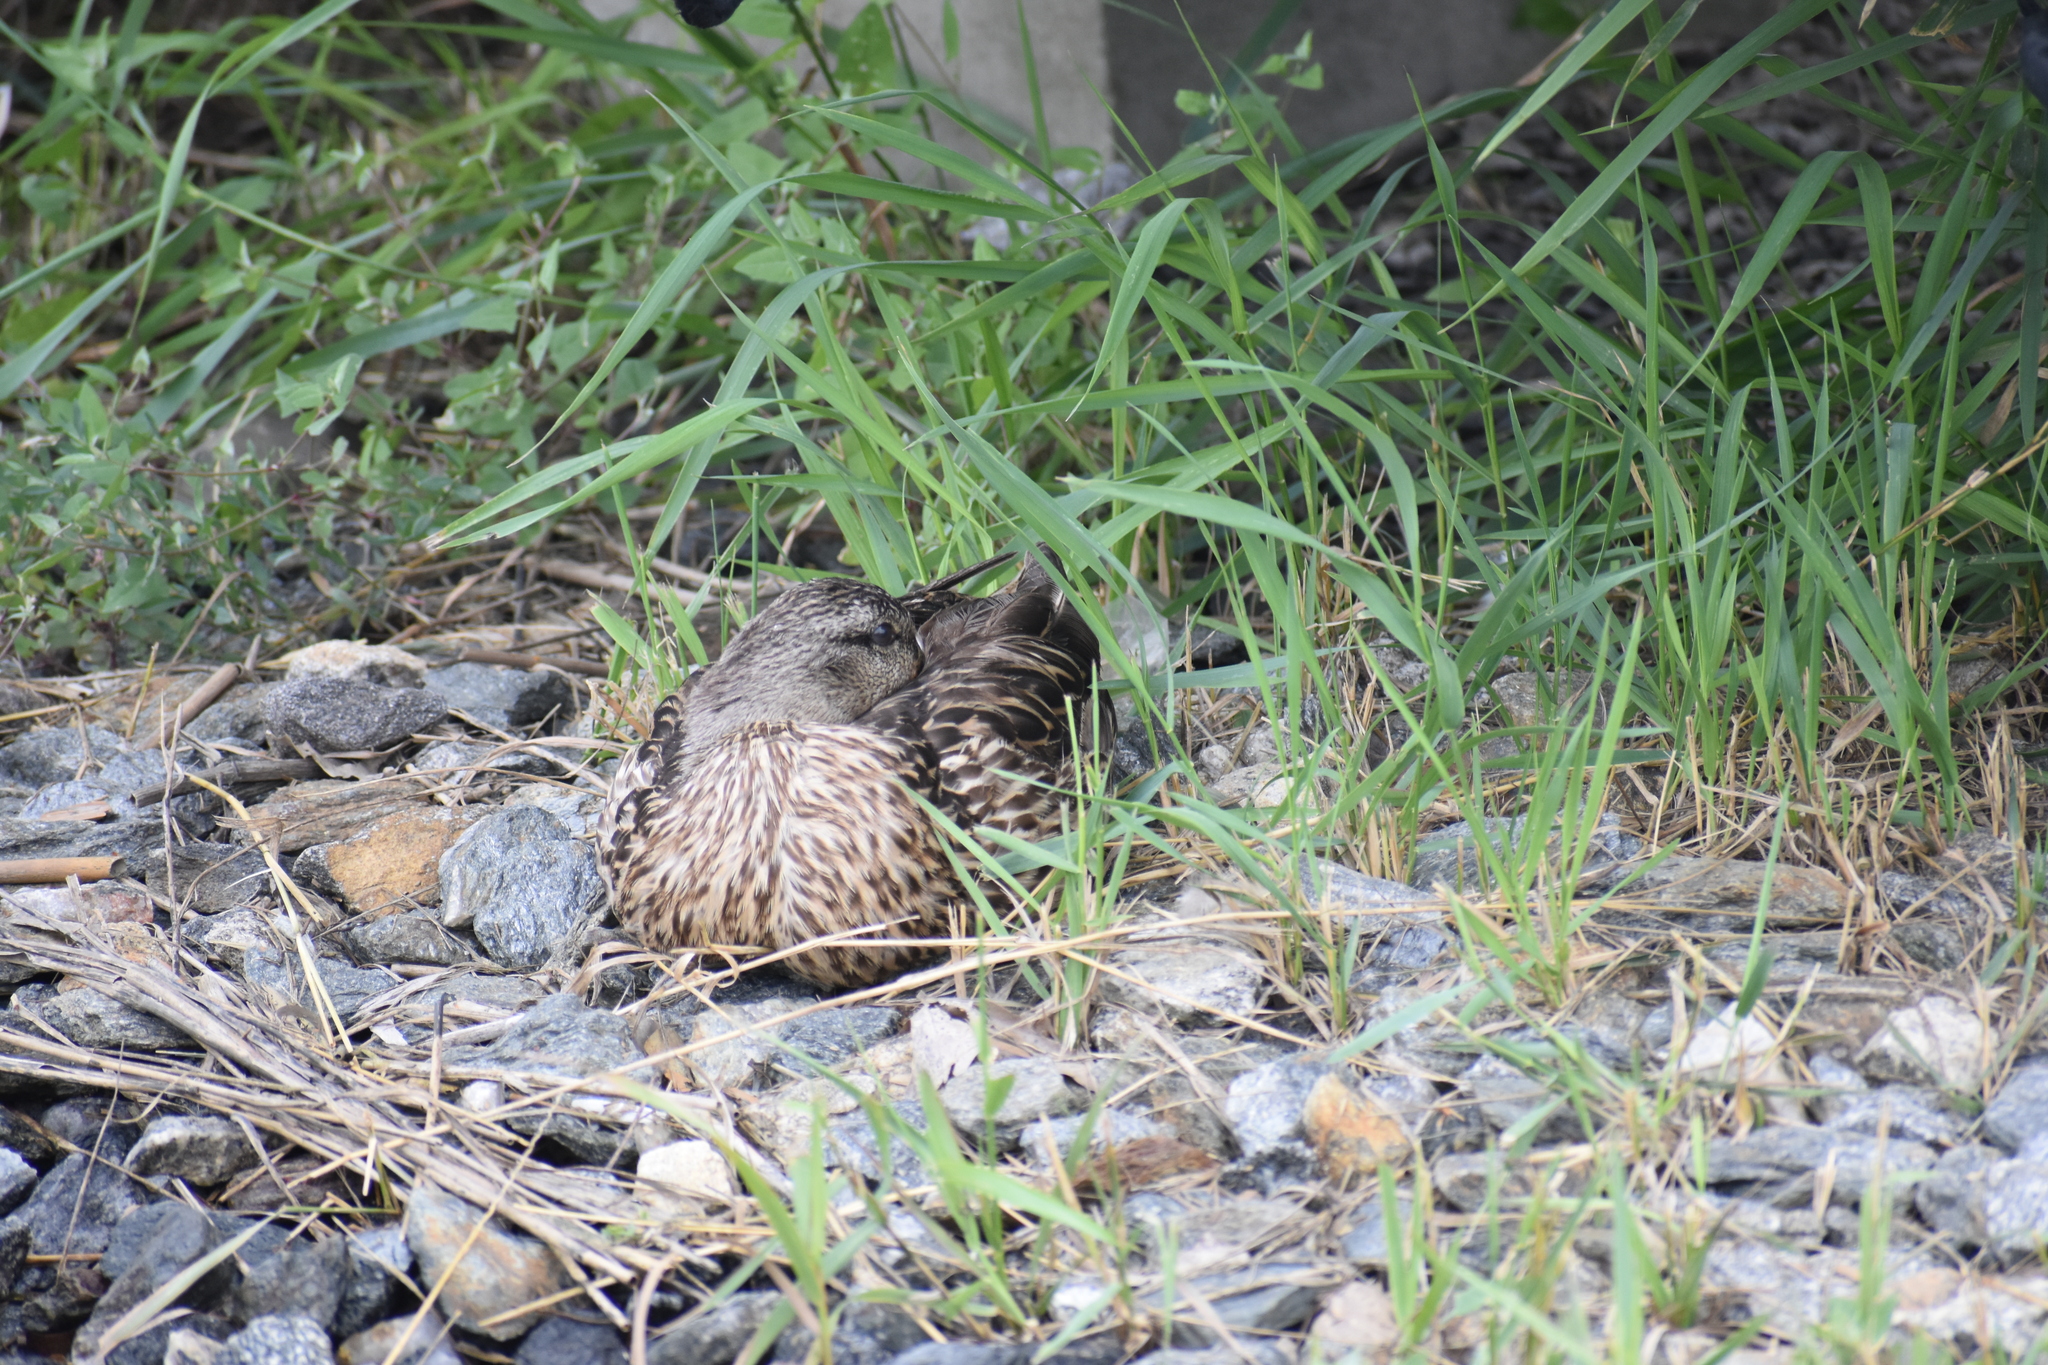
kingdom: Animalia
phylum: Chordata
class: Aves
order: Anseriformes
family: Anatidae
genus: Anas
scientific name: Anas platyrhynchos
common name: Mallard
